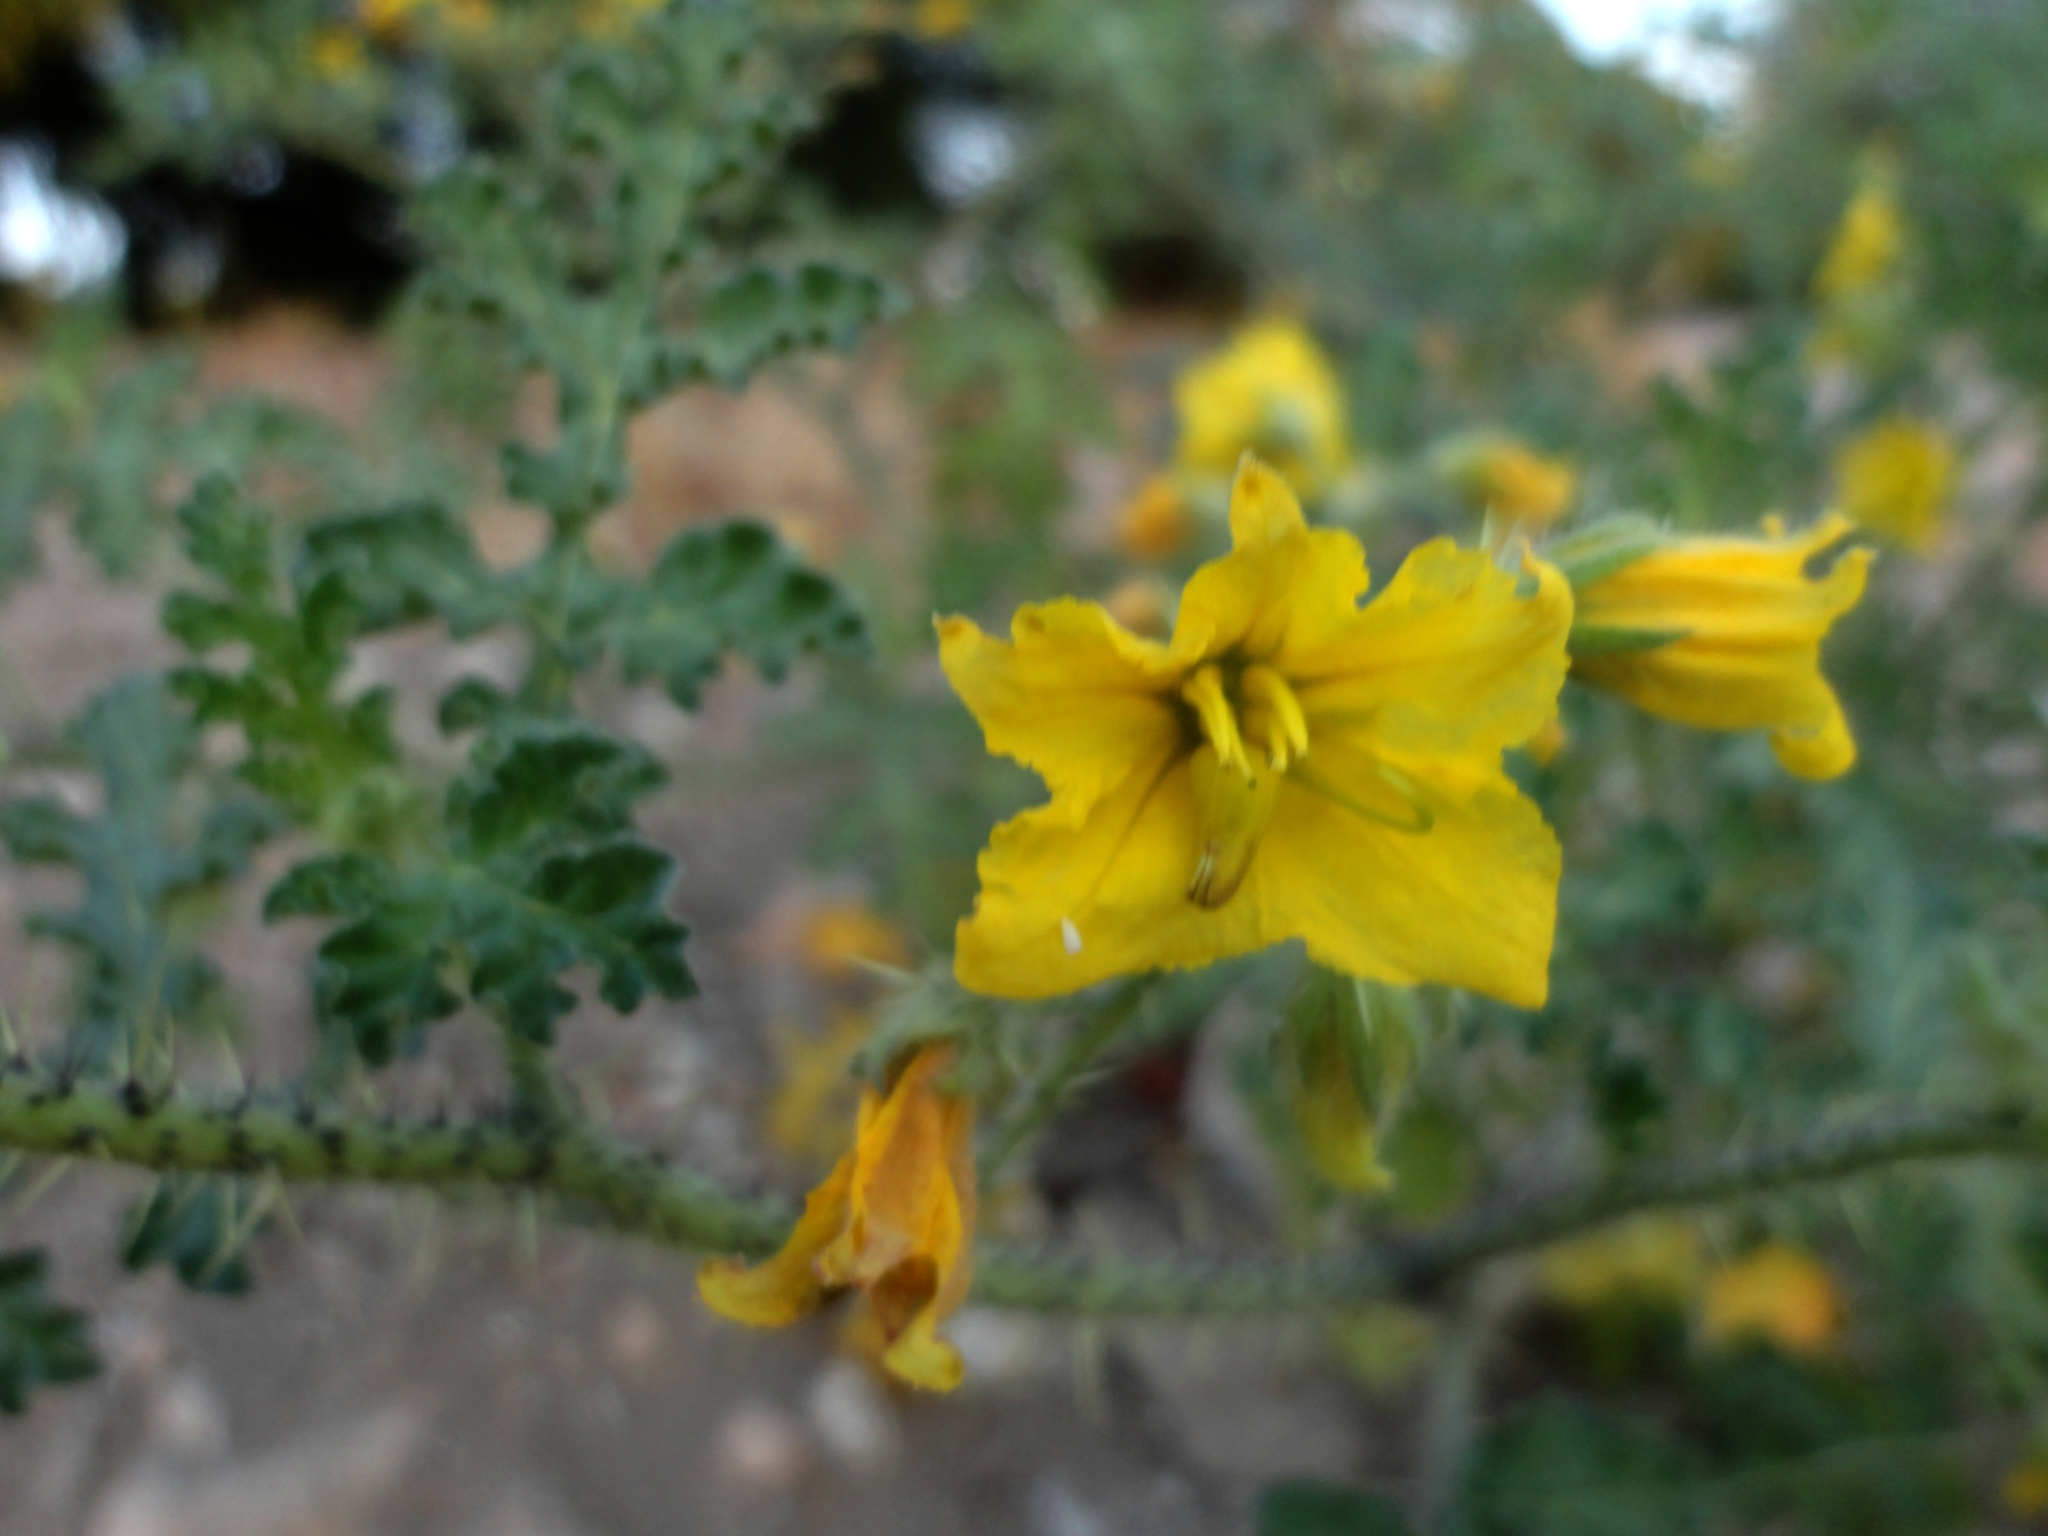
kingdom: Plantae
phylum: Tracheophyta
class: Magnoliopsida
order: Solanales
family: Solanaceae
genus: Solanum
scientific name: Solanum angustifolium
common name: Buffalobur nightshade
